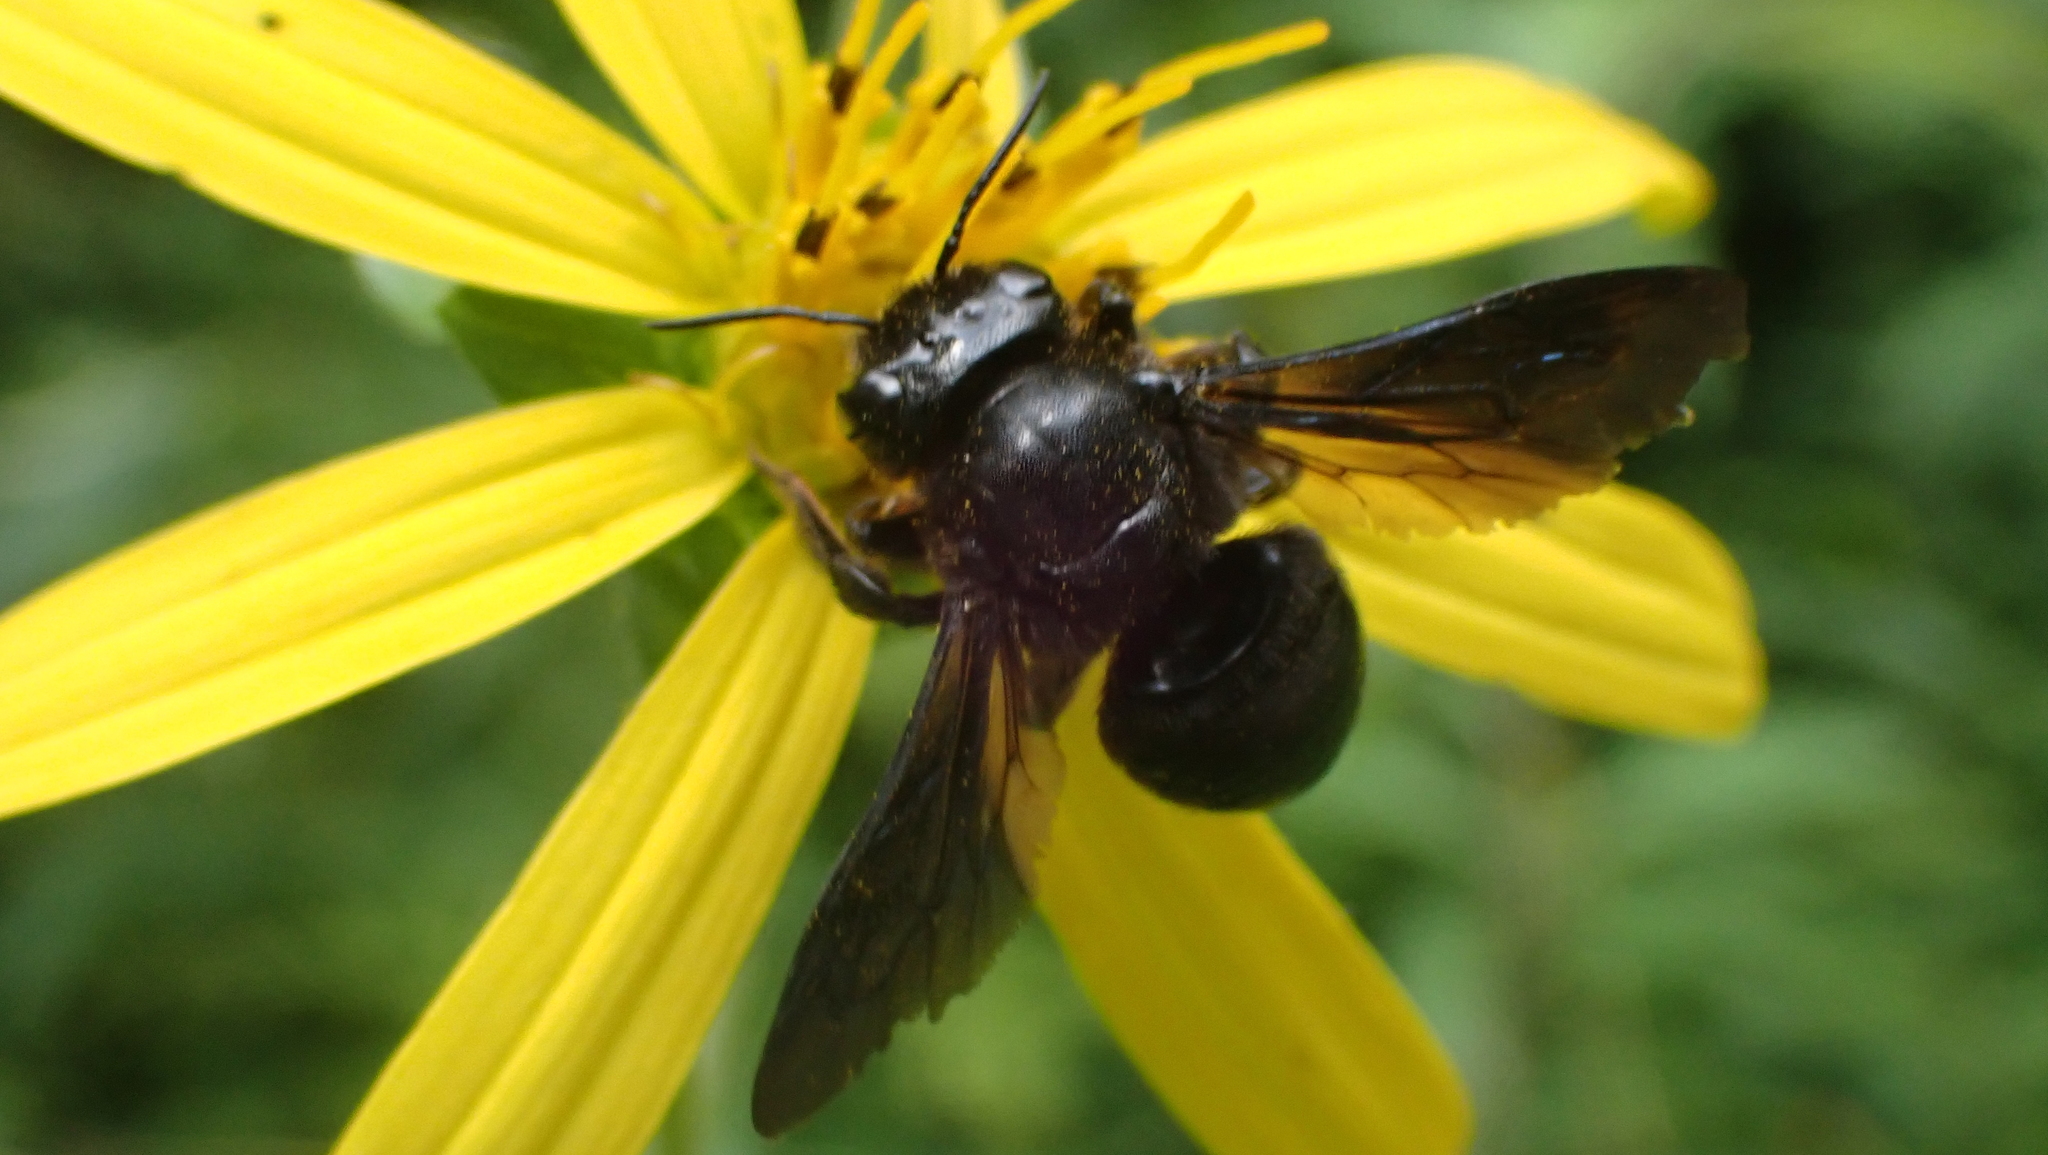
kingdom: Animalia
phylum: Arthropoda
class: Insecta
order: Hymenoptera
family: Megachilidae
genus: Megachile
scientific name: Megachile xylocopoides
